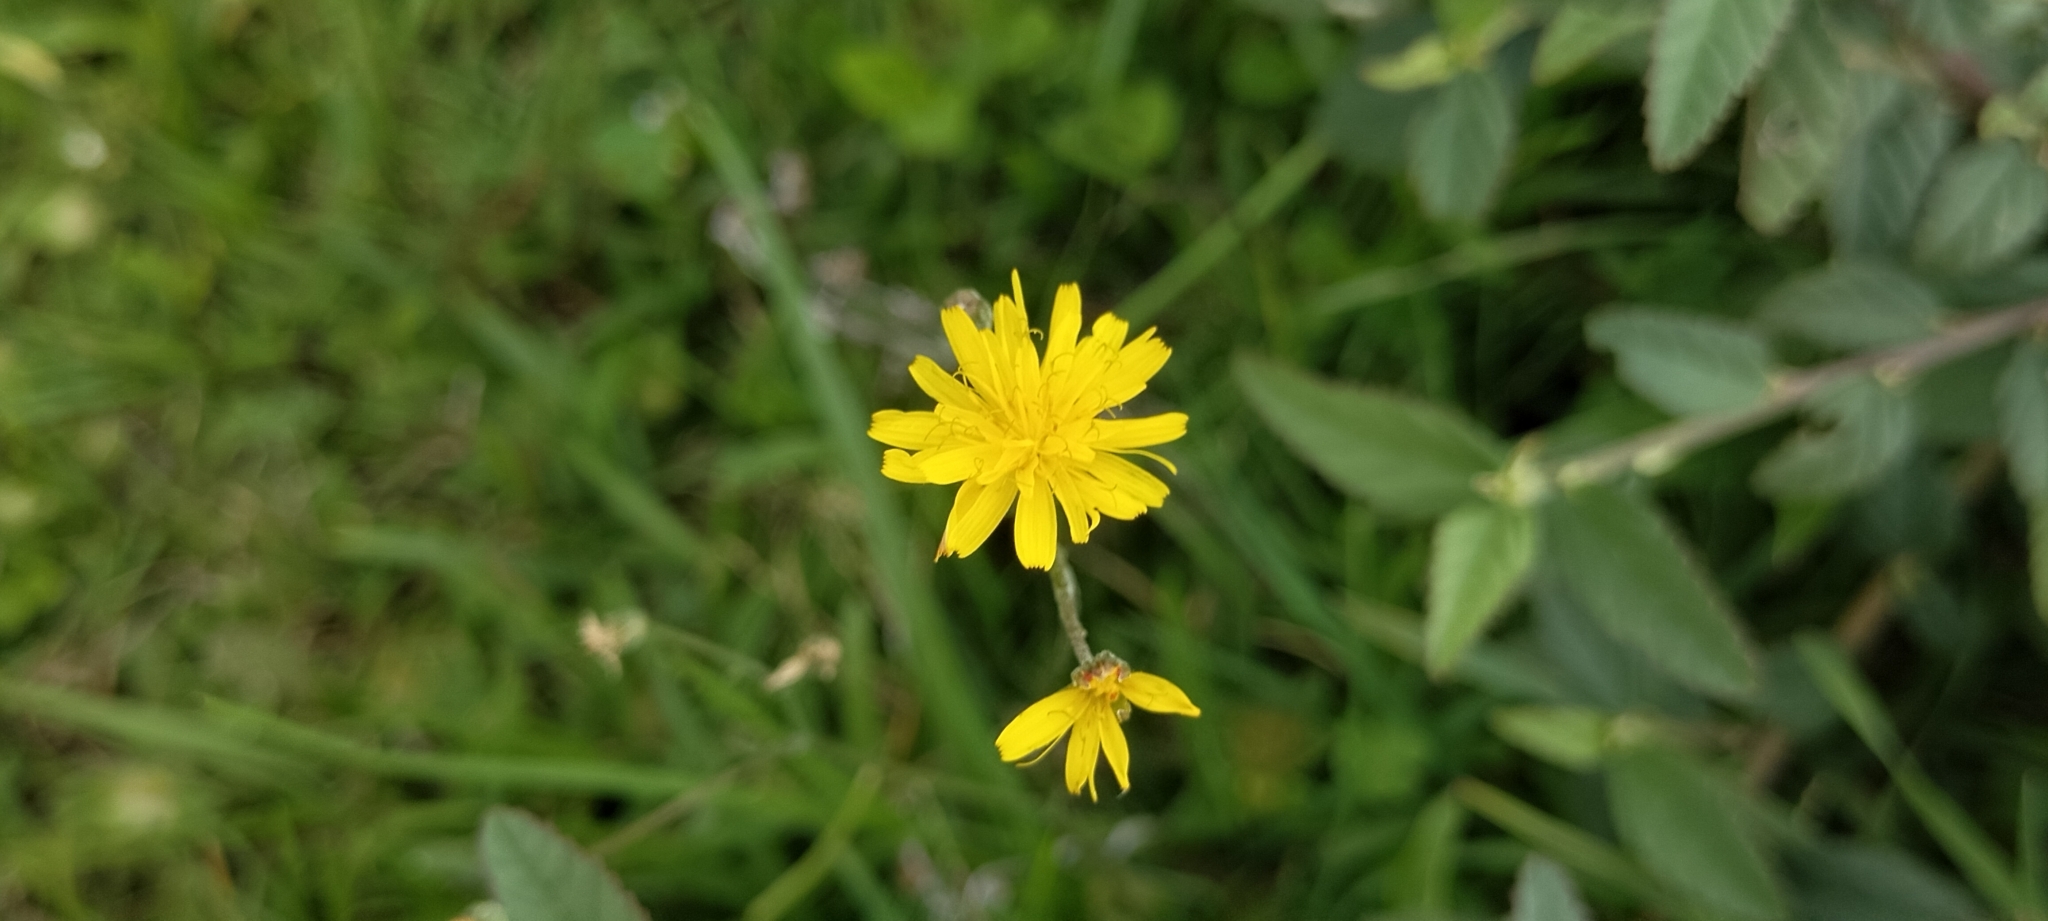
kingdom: Plantae
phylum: Tracheophyta
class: Magnoliopsida
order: Asterales
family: Asteraceae
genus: Crepis
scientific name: Crepis capillaris
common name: Smooth hawksbeard
